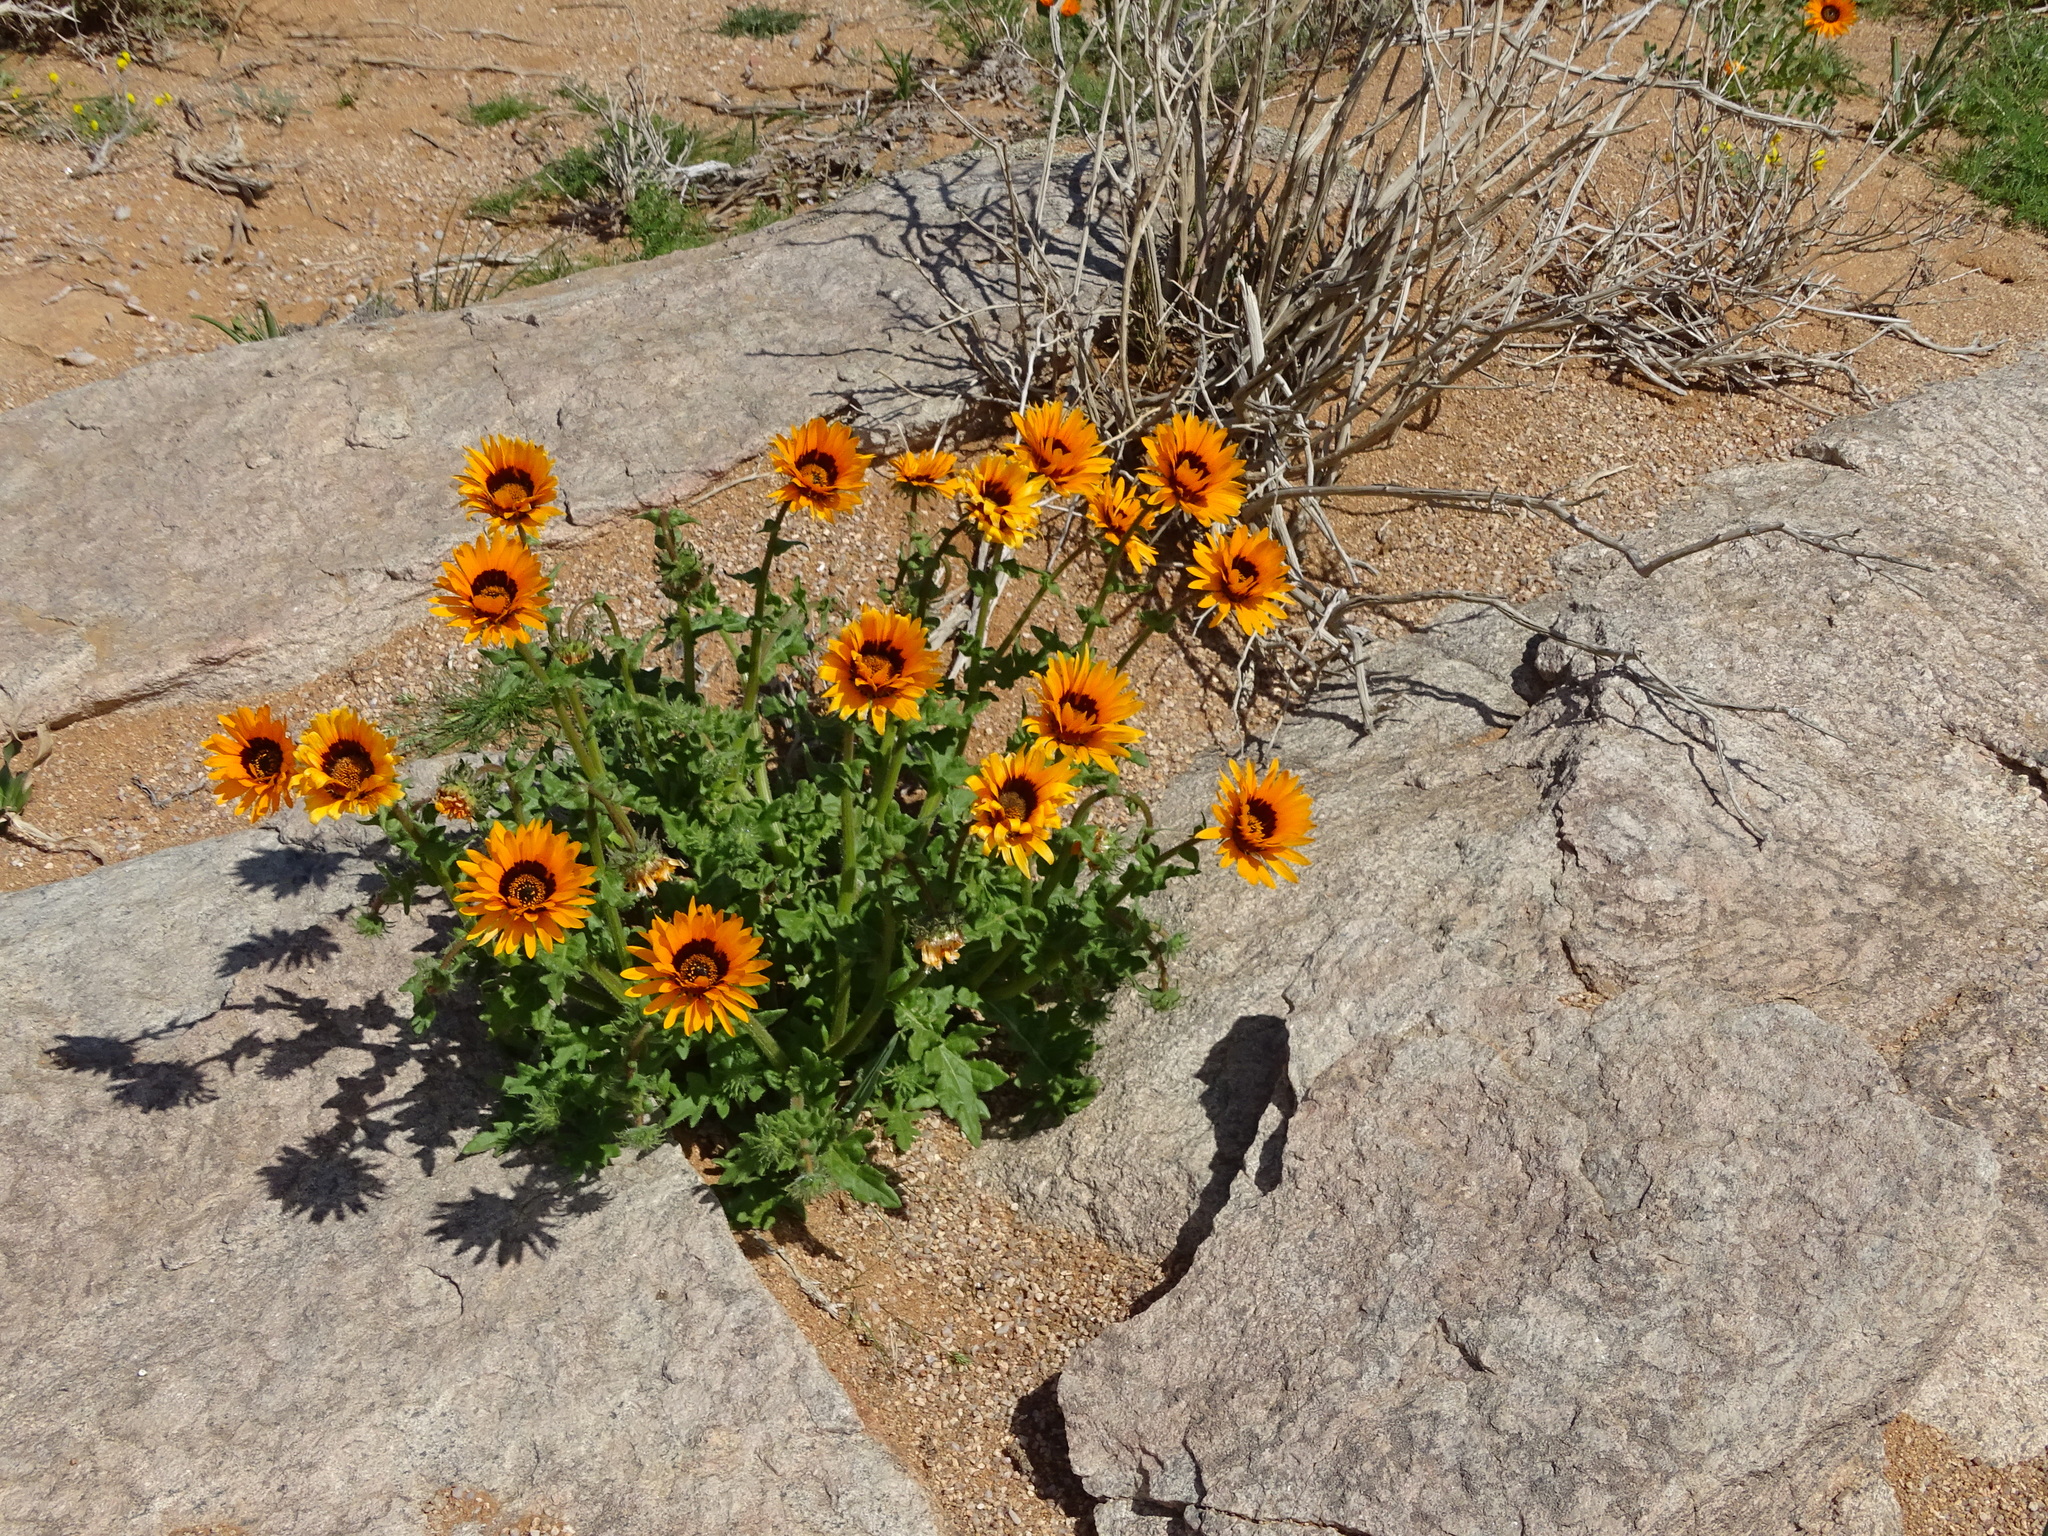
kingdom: Plantae
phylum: Tracheophyta
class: Magnoliopsida
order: Asterales
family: Asteraceae
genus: Arctotis
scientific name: Arctotis fastuosa
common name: Monarch of the veld
